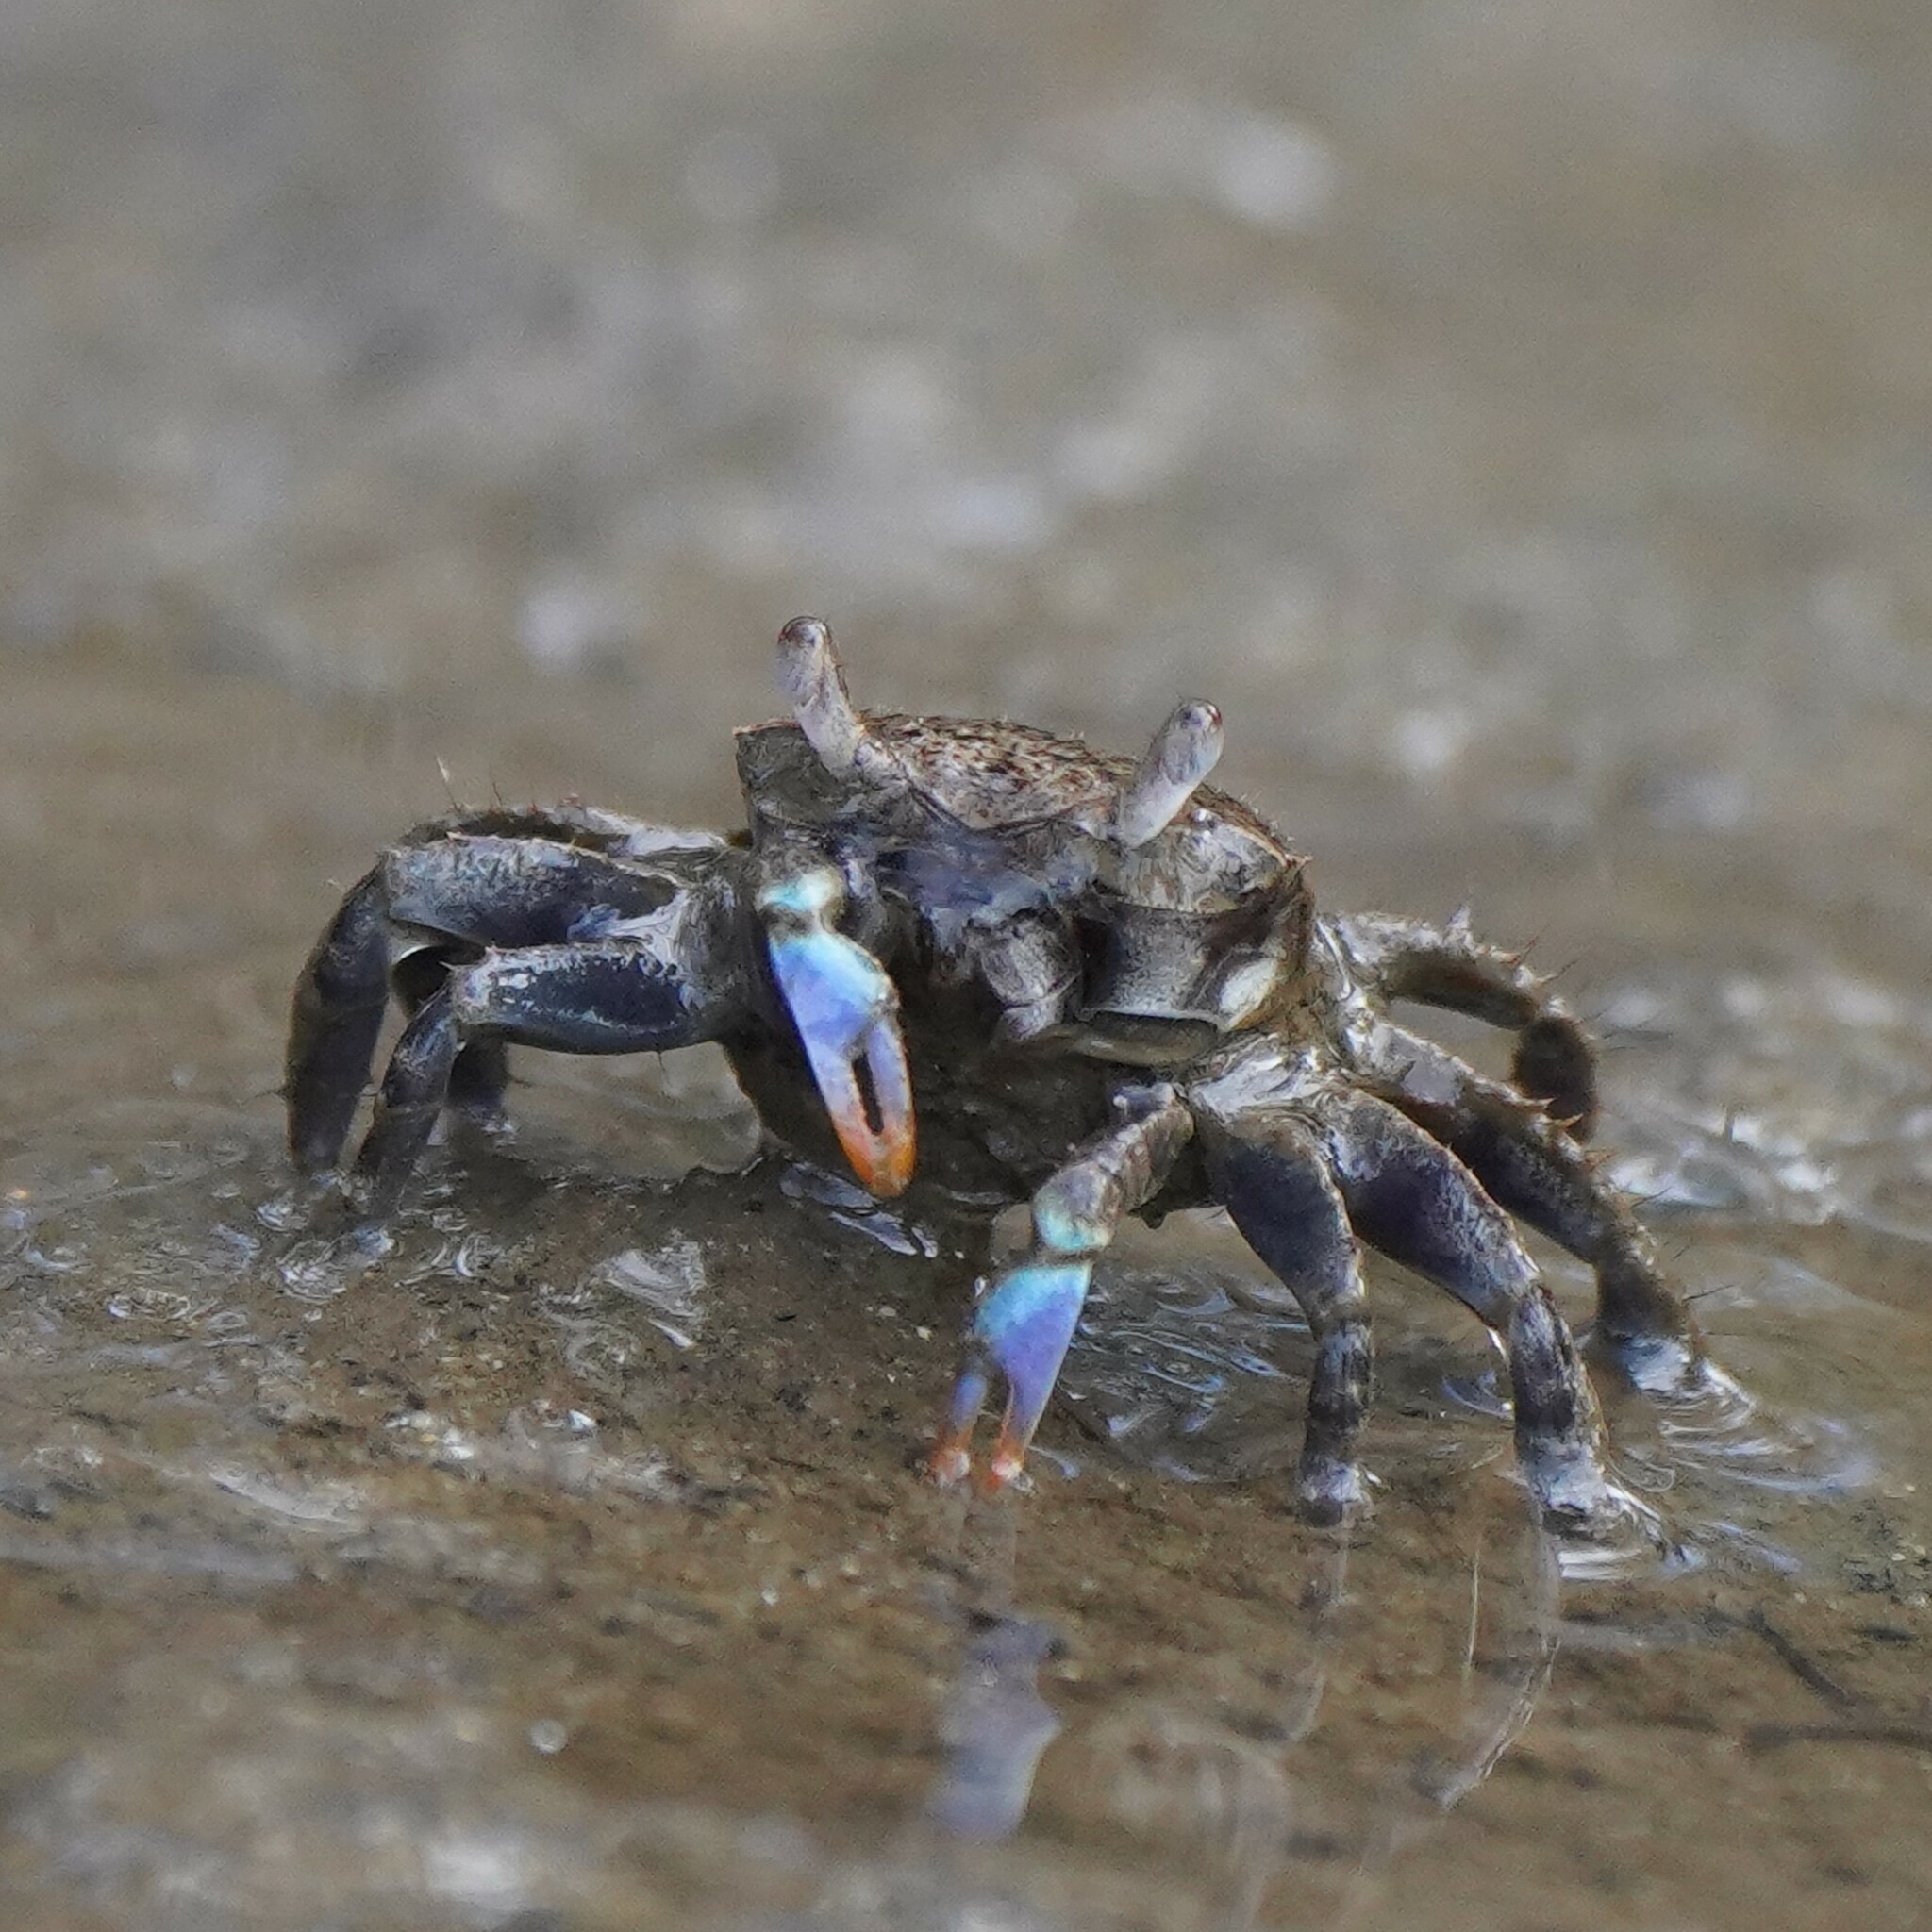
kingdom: Animalia
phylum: Arthropoda
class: Malacostraca
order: Decapoda
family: Macrophthalmidae
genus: Australoplax
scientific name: Australoplax tridentata
